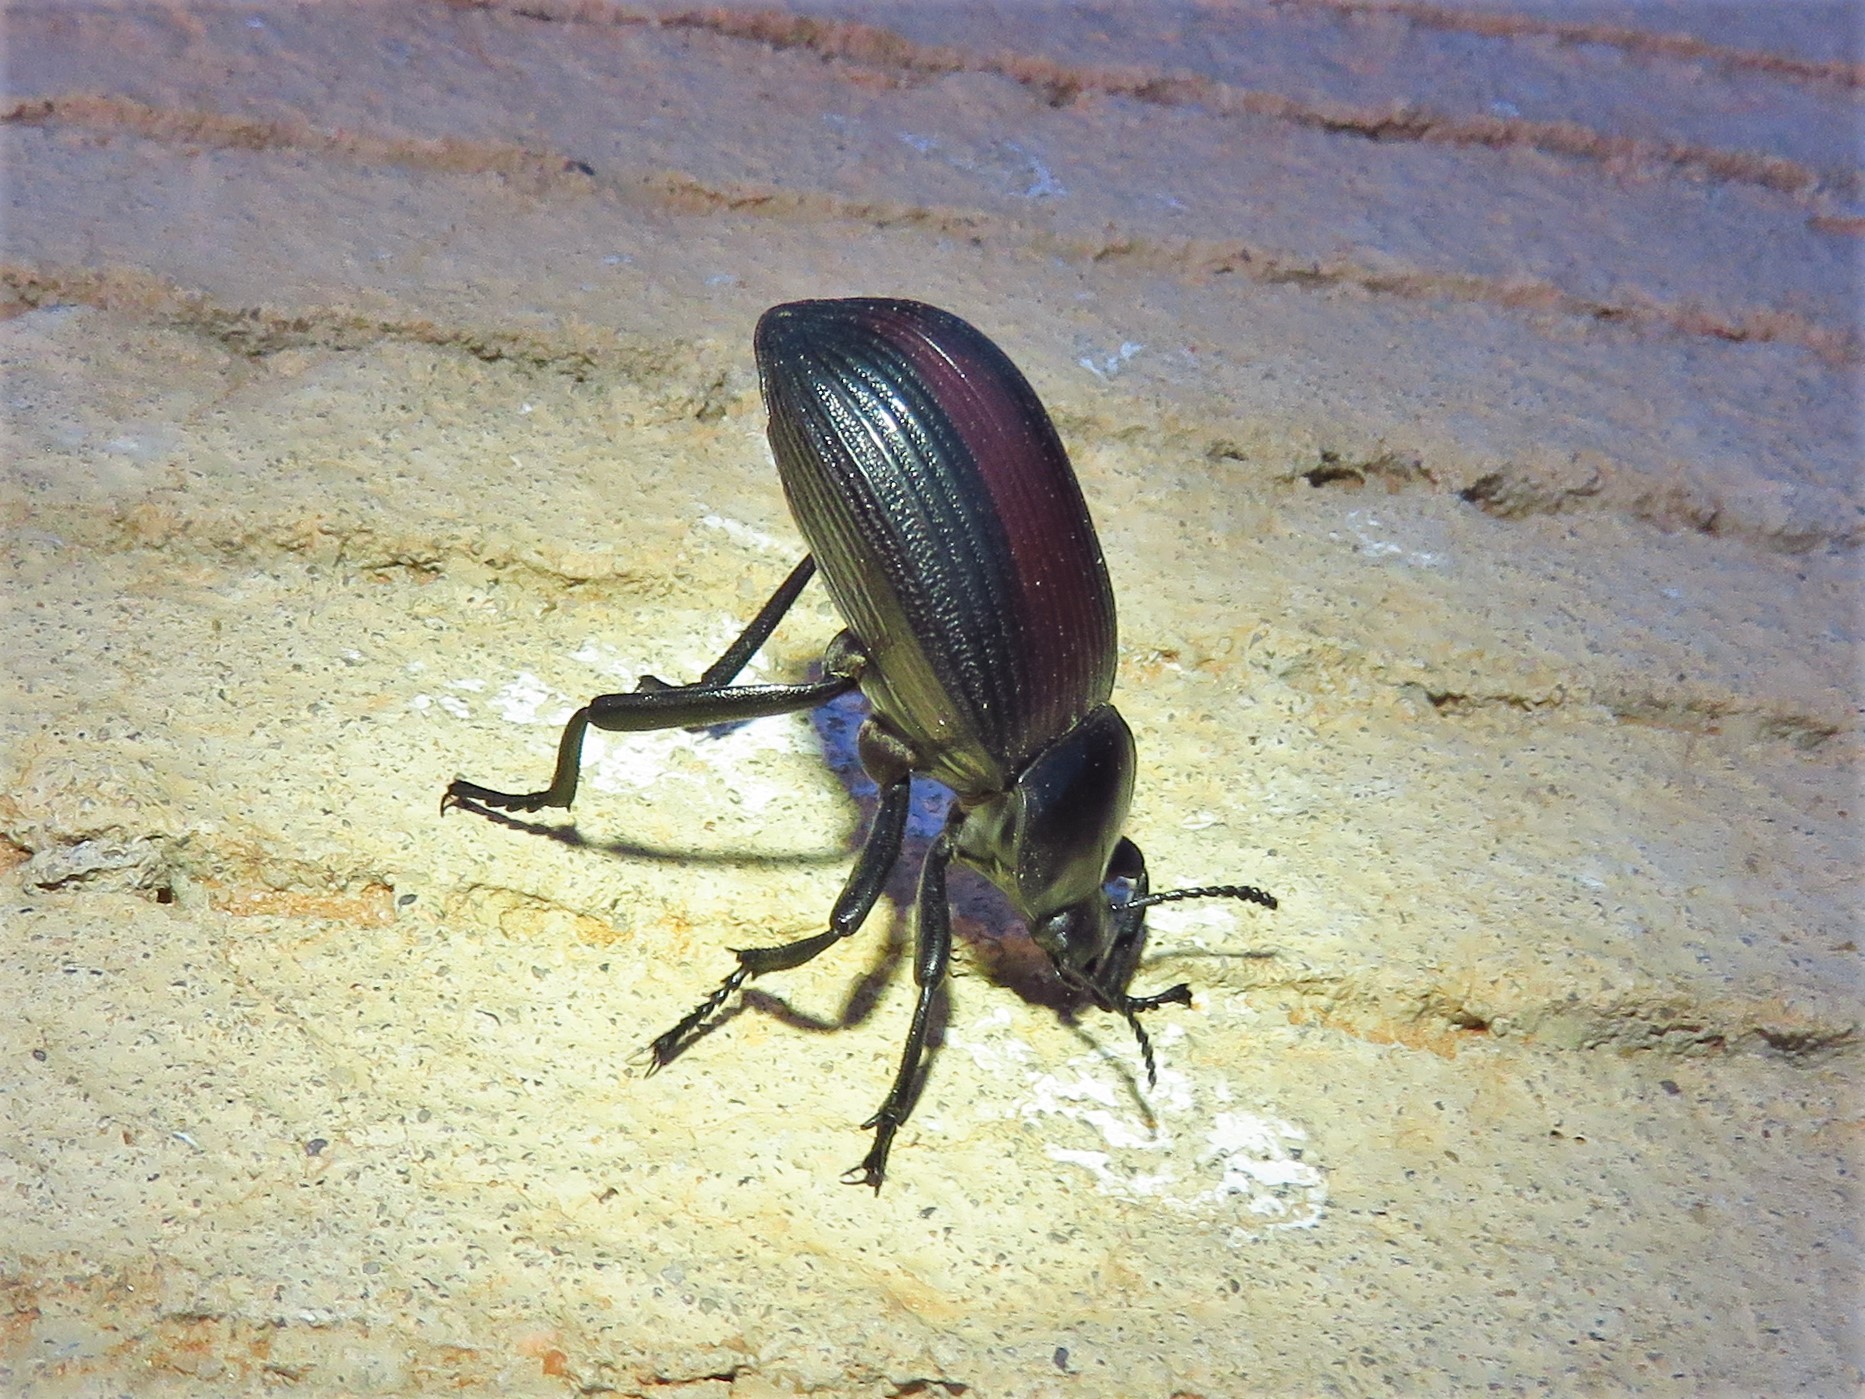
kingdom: Animalia
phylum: Arthropoda
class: Insecta
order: Coleoptera
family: Tenebrionidae
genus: Eleodes
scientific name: Eleodes acuta
